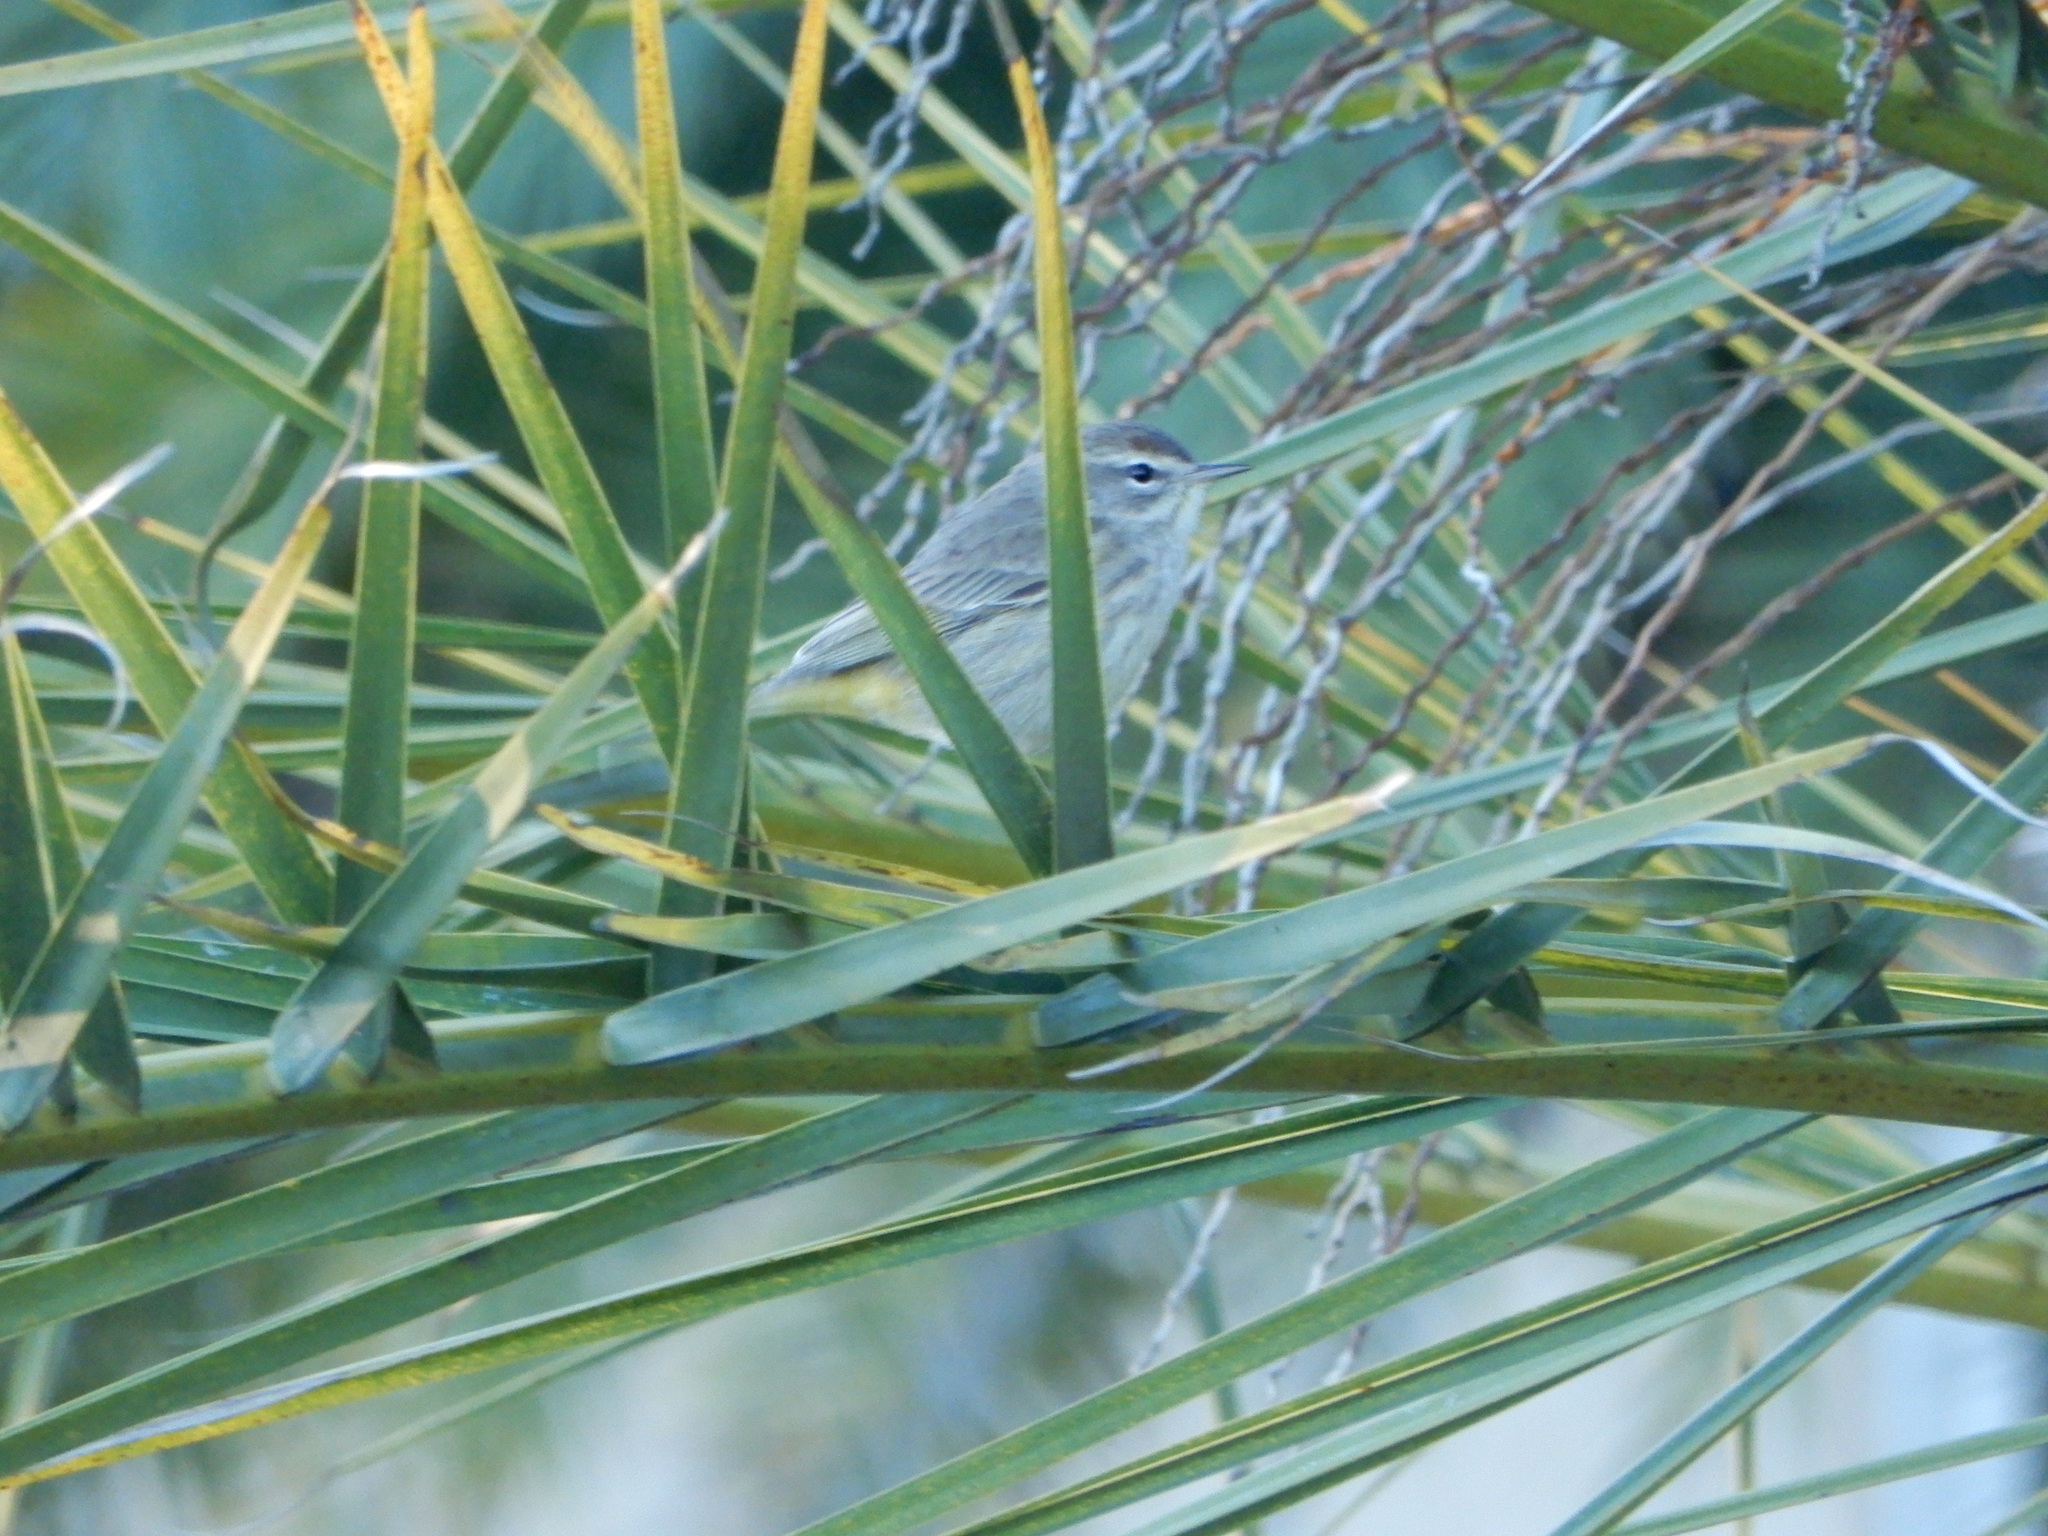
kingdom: Animalia
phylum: Chordata
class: Aves
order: Passeriformes
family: Parulidae
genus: Setophaga
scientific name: Setophaga palmarum
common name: Palm warbler
